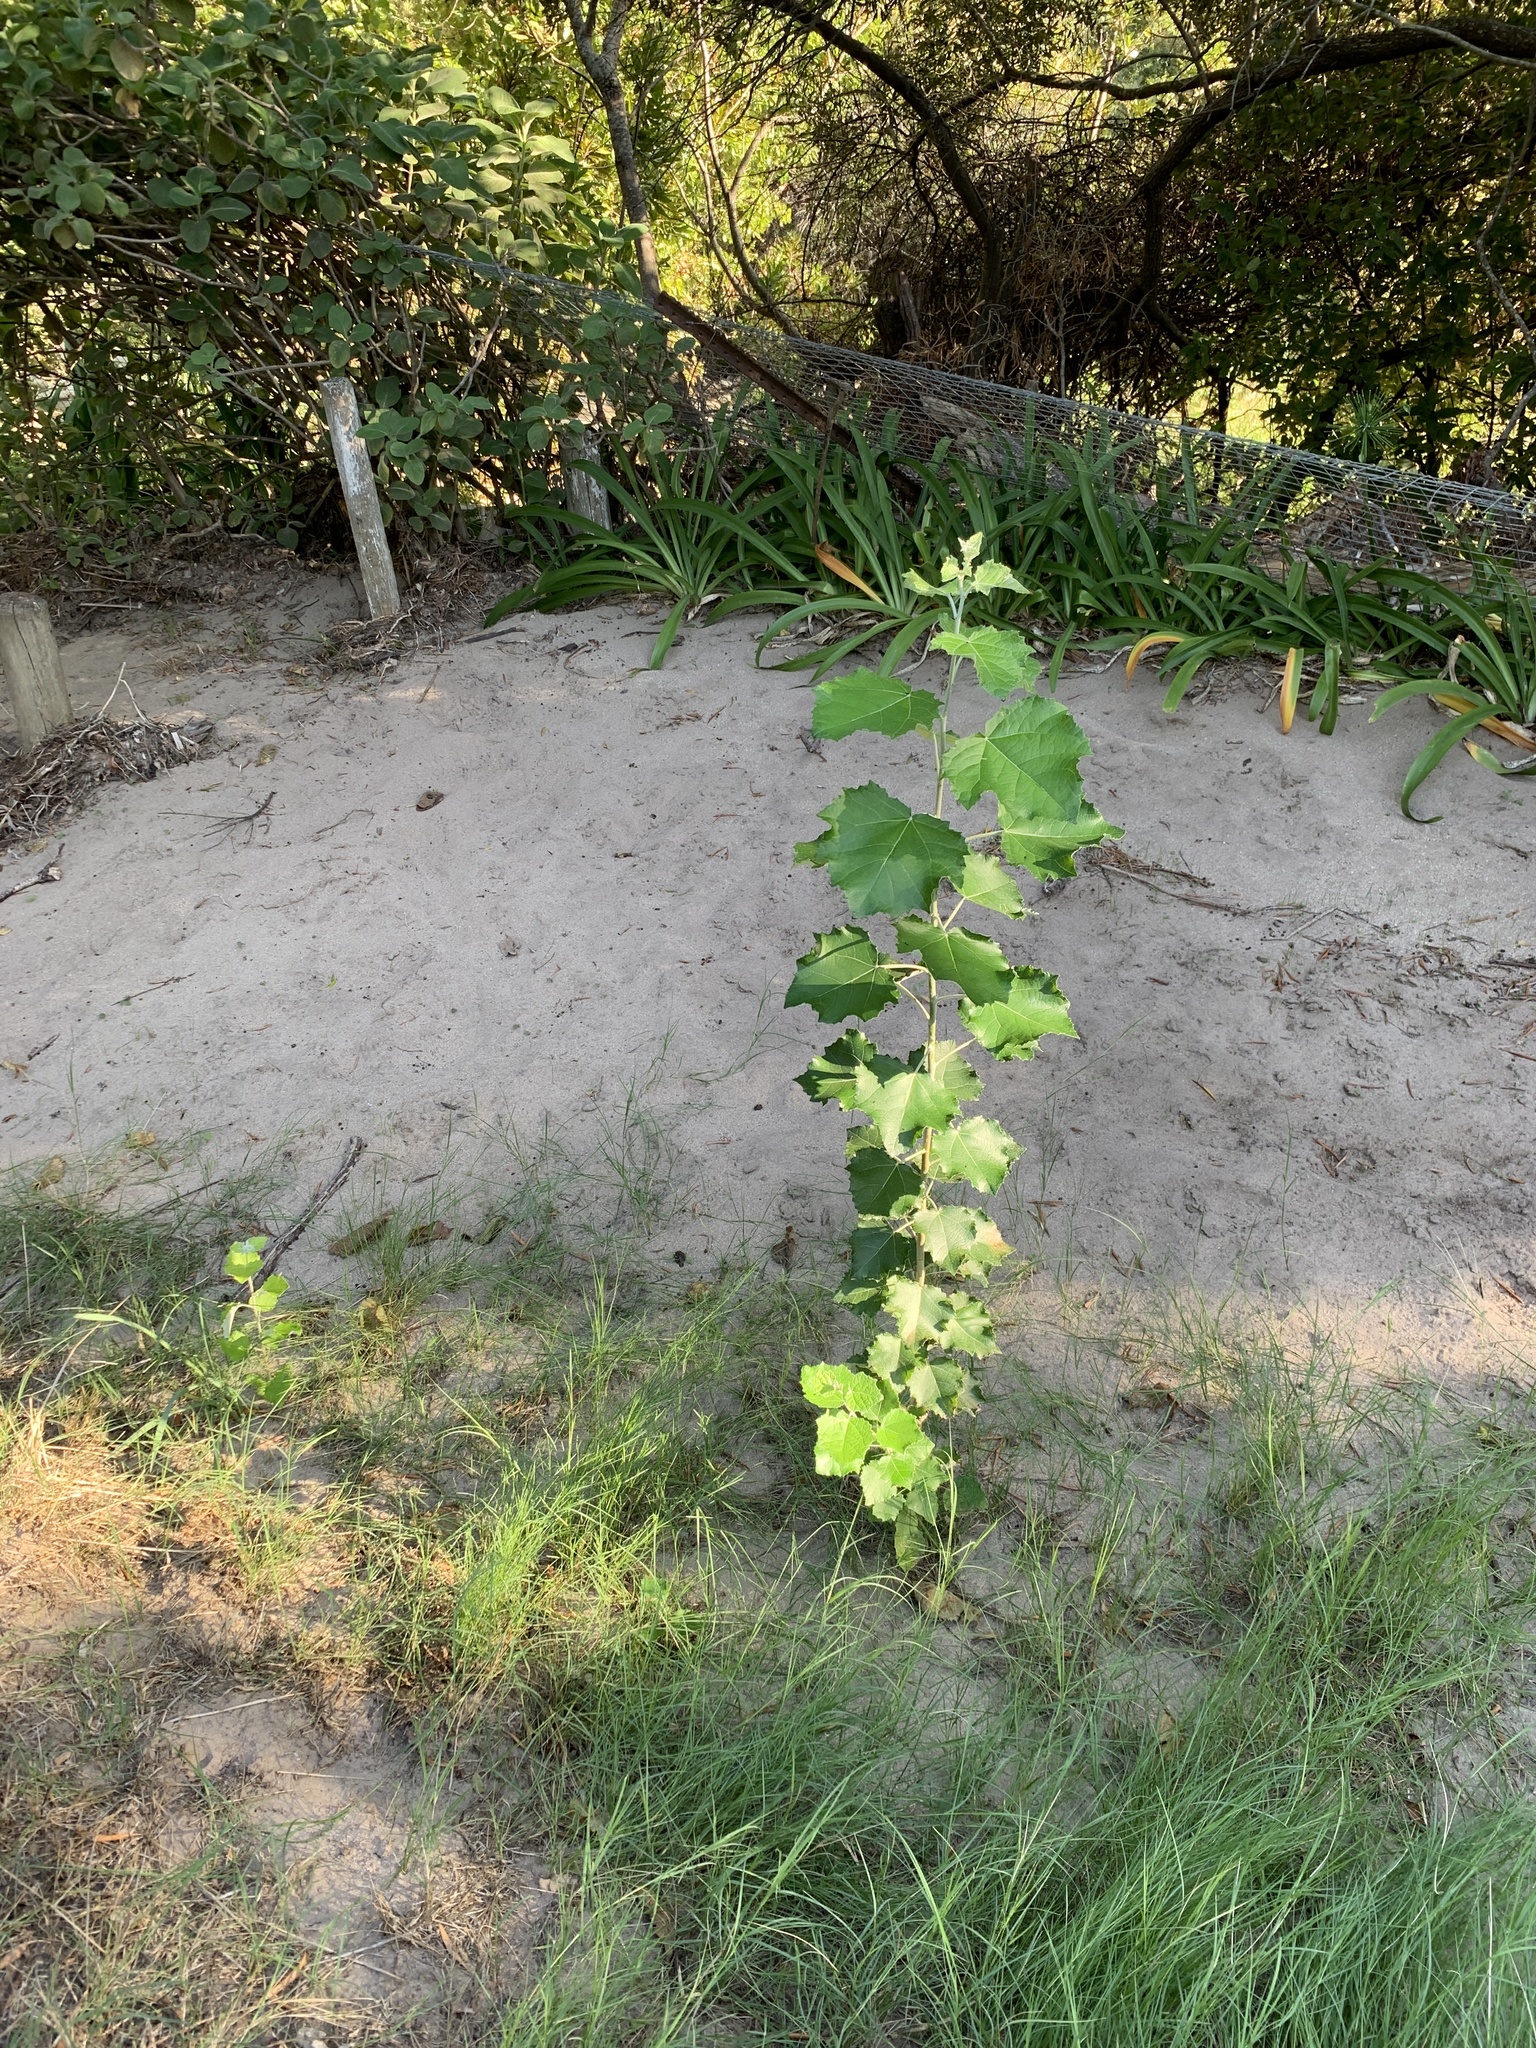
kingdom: Plantae
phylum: Tracheophyta
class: Magnoliopsida
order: Malpighiales
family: Salicaceae
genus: Populus
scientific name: Populus canescens
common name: Gray poplar
